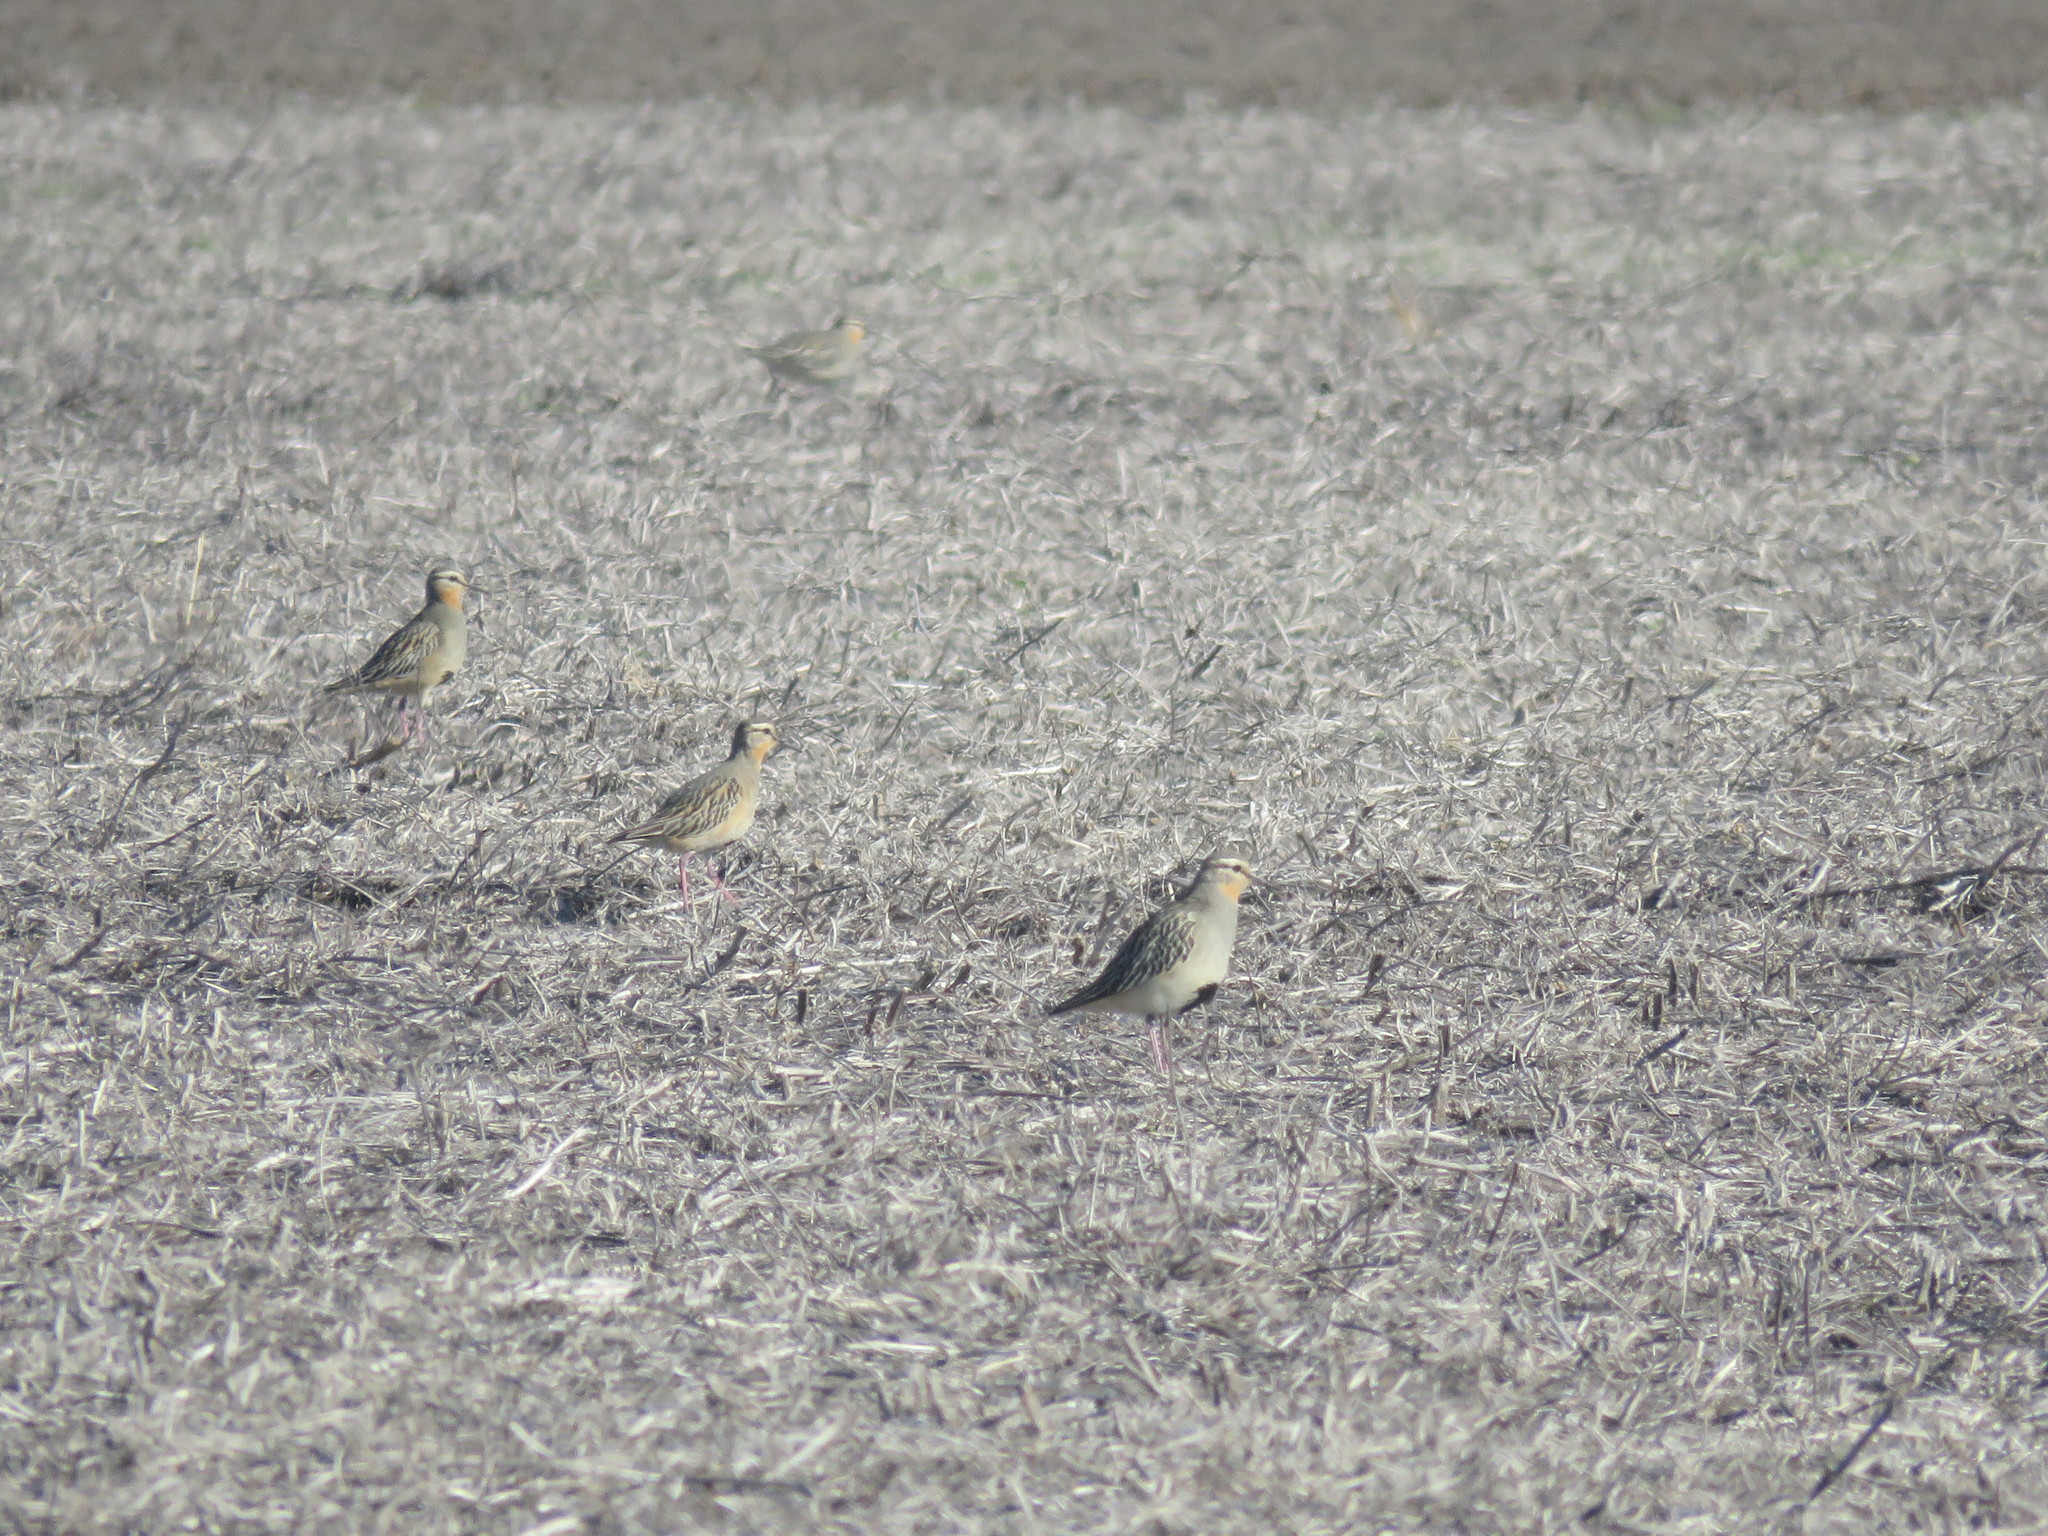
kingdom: Animalia
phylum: Chordata
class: Aves
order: Charadriiformes
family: Charadriidae
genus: Oreopholus
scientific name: Oreopholus ruficollis
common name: Tawny-throated dotterel
